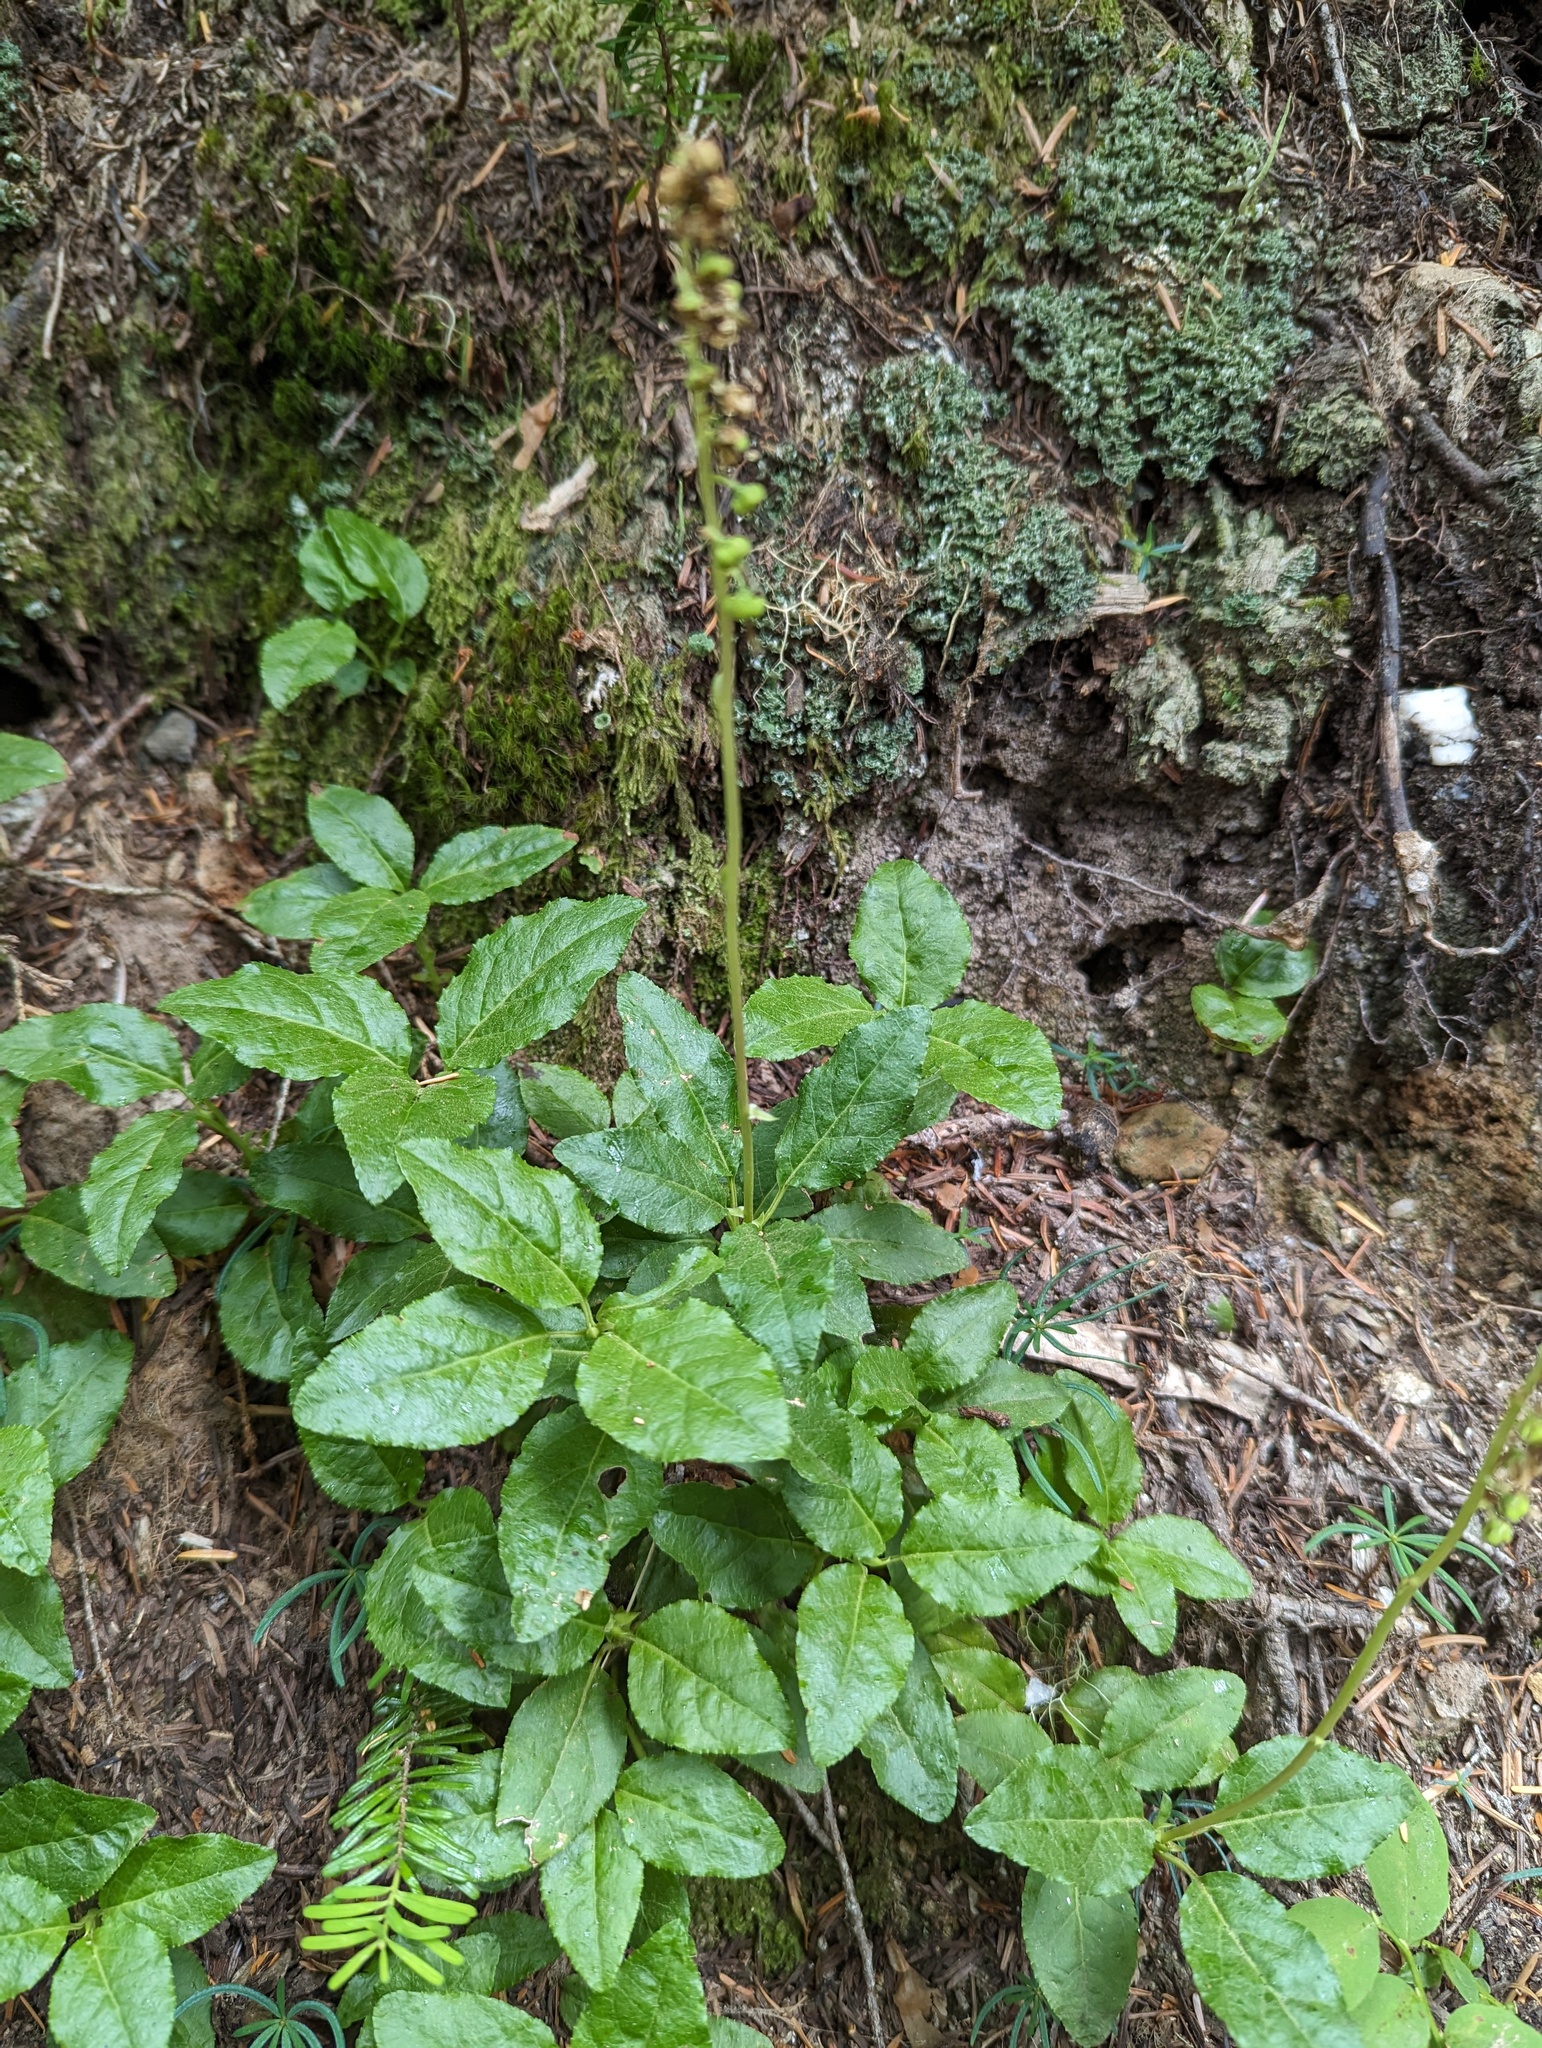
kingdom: Plantae
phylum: Tracheophyta
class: Magnoliopsida
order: Ericales
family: Ericaceae
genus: Orthilia
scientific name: Orthilia secunda
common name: One-sided orthilia
